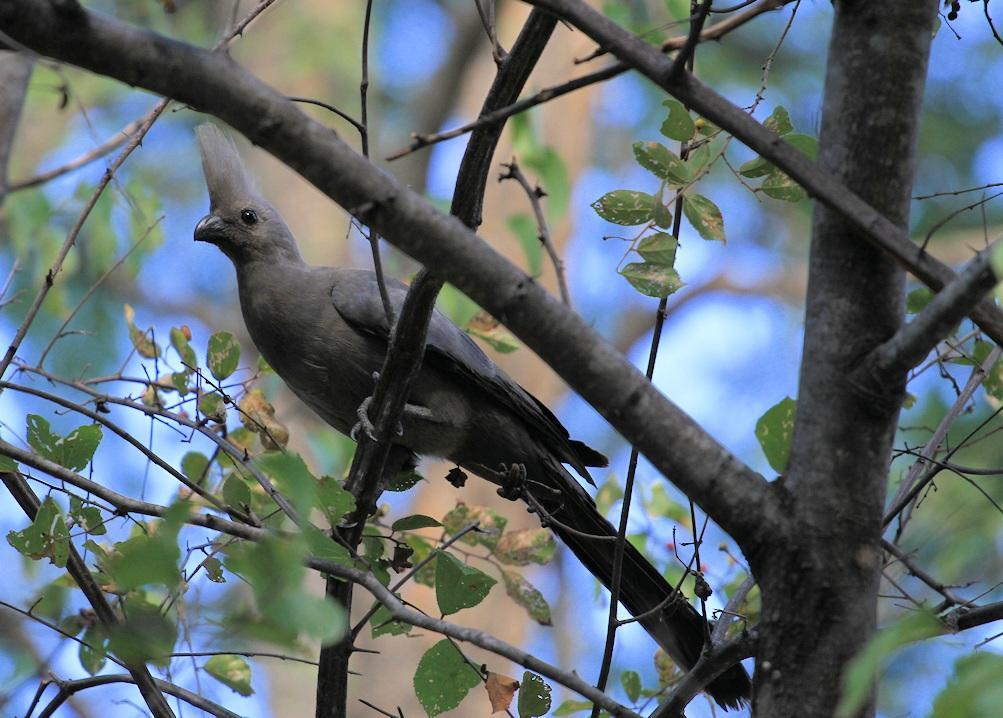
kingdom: Animalia
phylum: Chordata
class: Aves
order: Musophagiformes
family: Musophagidae
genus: Corythaixoides
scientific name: Corythaixoides concolor
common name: Grey go-away-bird
